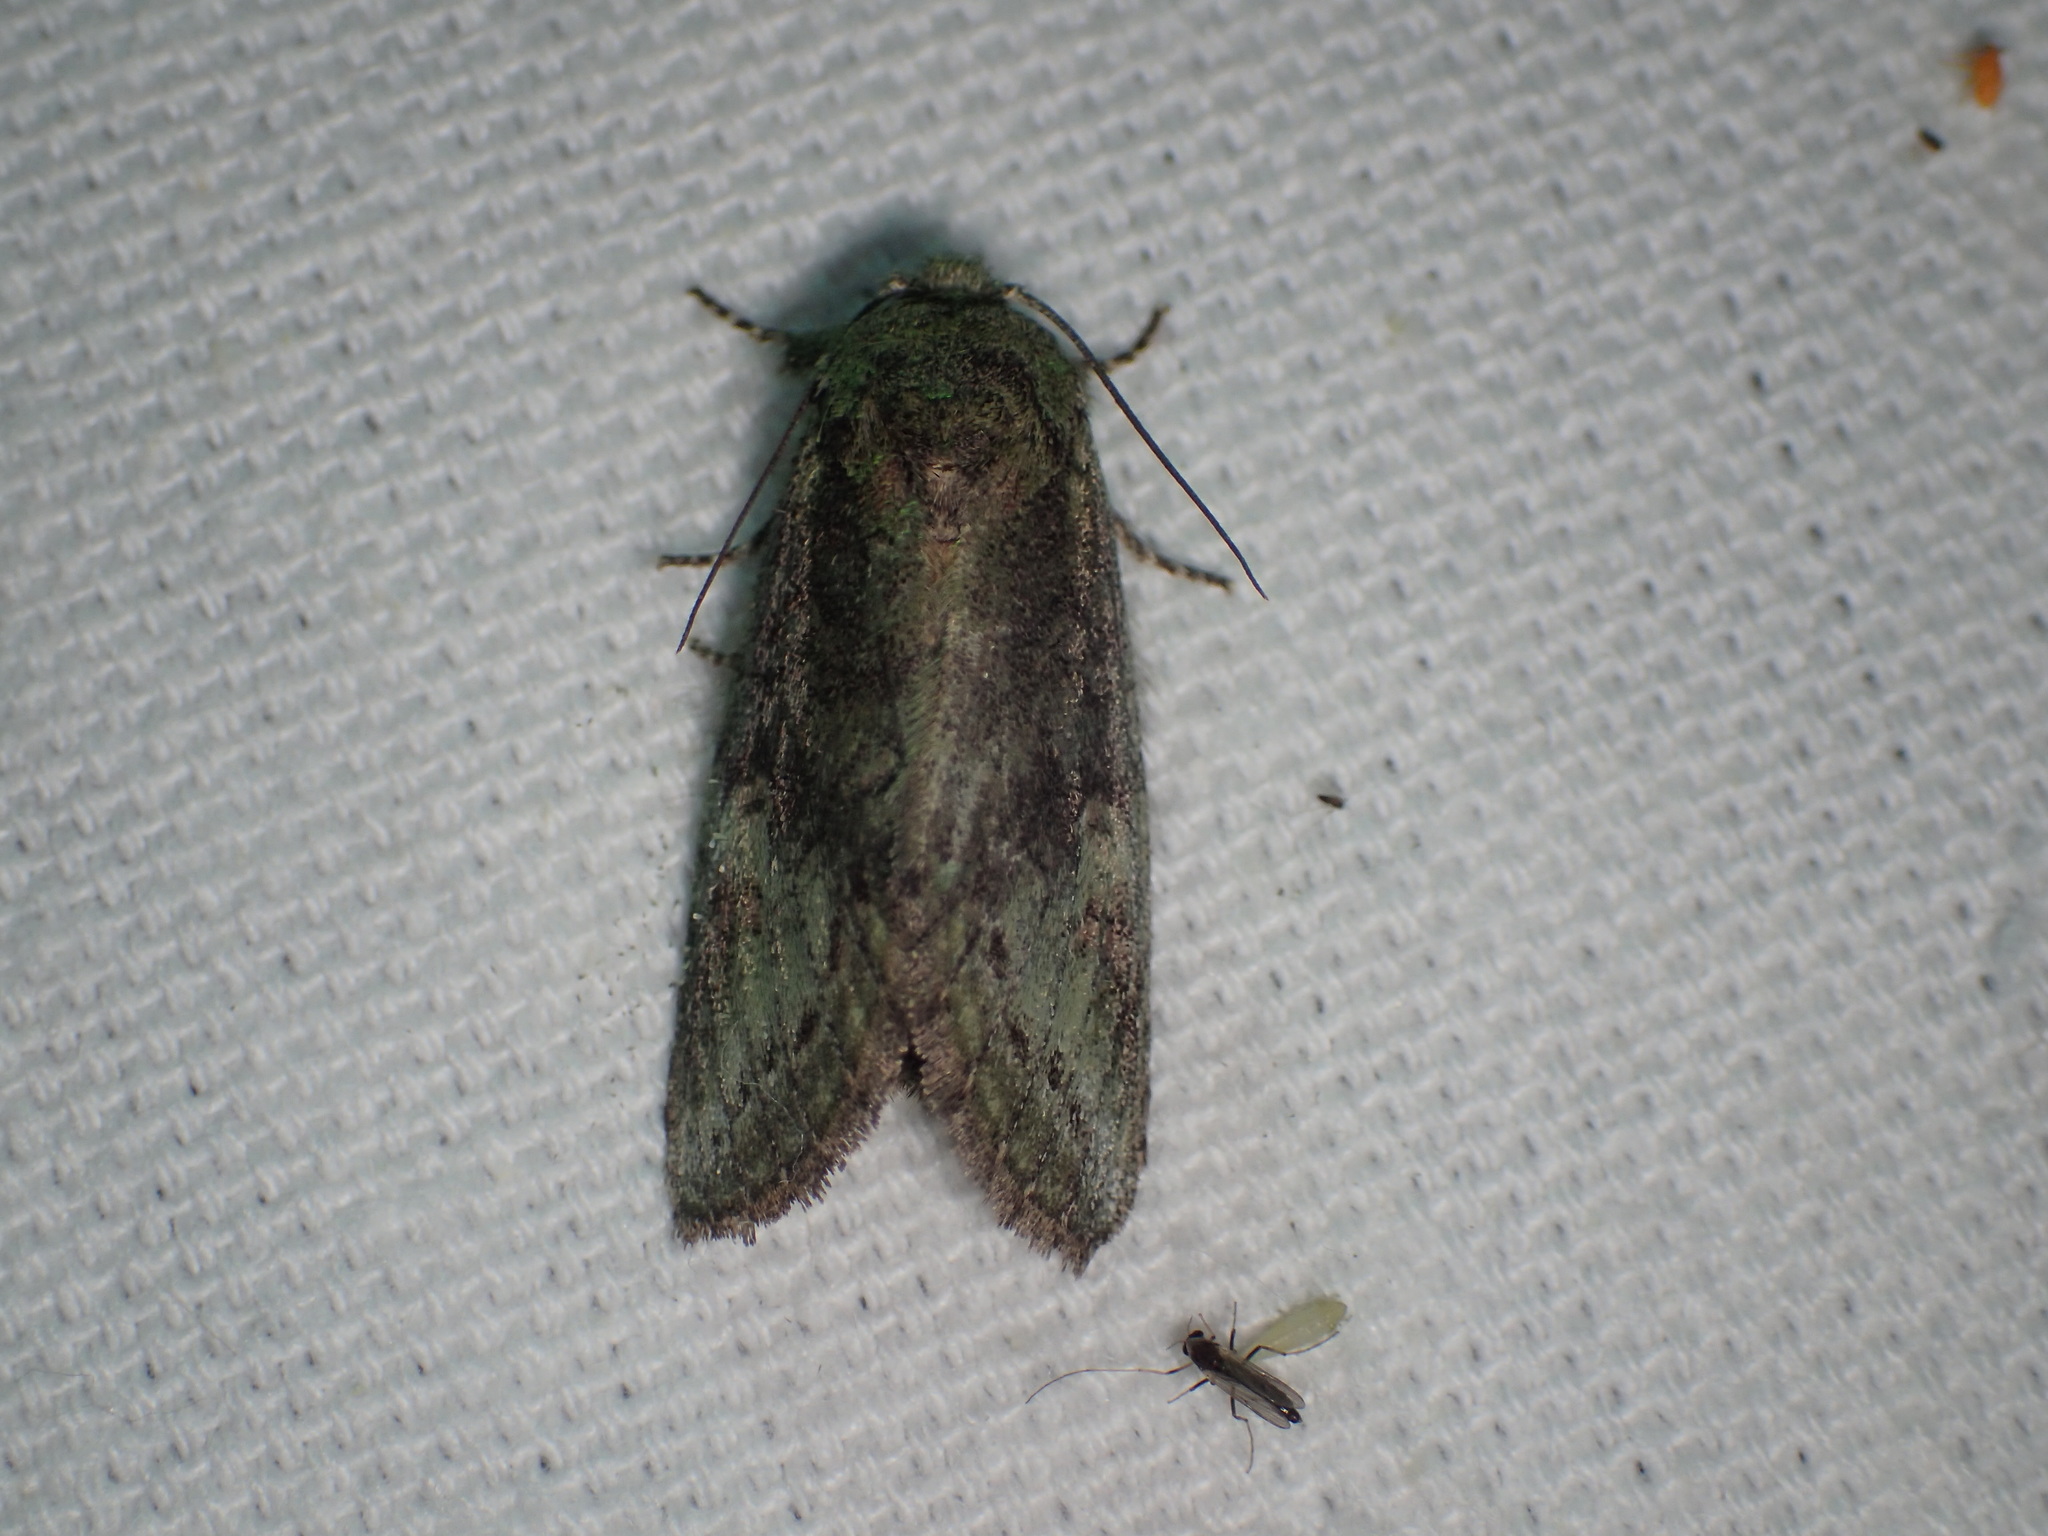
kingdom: Animalia
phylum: Arthropoda
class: Insecta
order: Lepidoptera
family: Notodontidae
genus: Heterocampa
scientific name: Heterocampa
